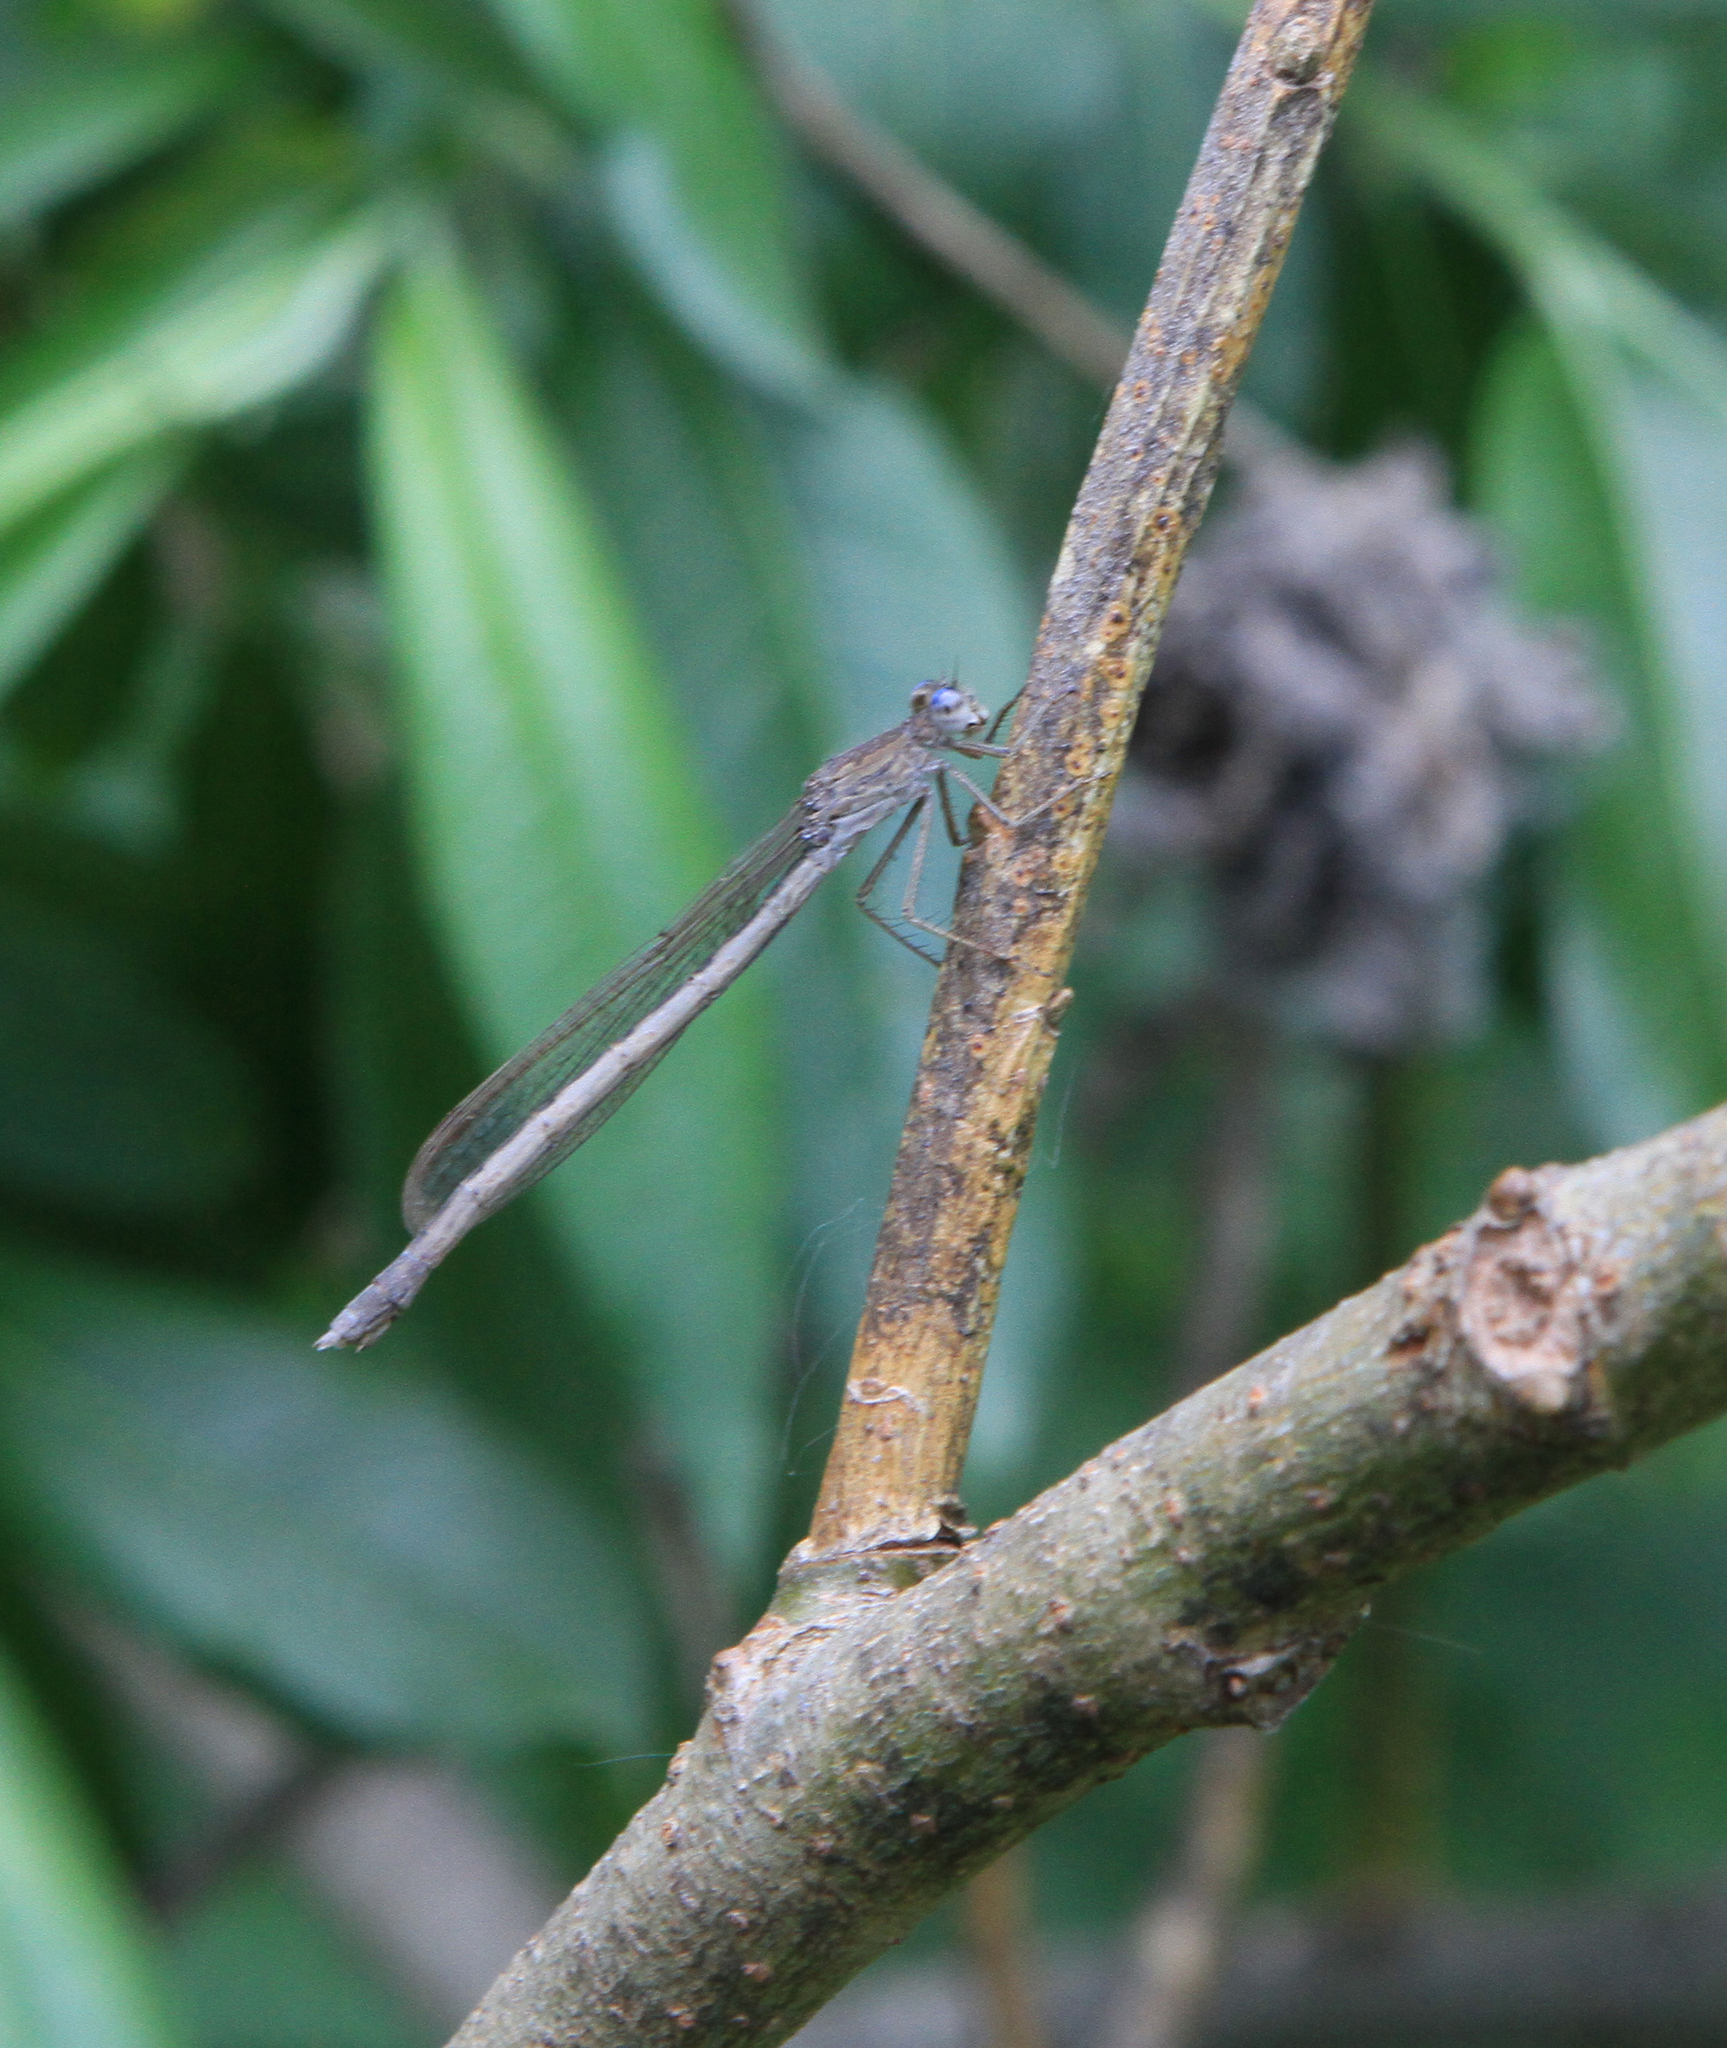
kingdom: Animalia
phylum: Arthropoda
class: Insecta
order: Odonata
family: Lestidae
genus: Sympecma
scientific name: Sympecma paedisca
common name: Siberian winter damsel
